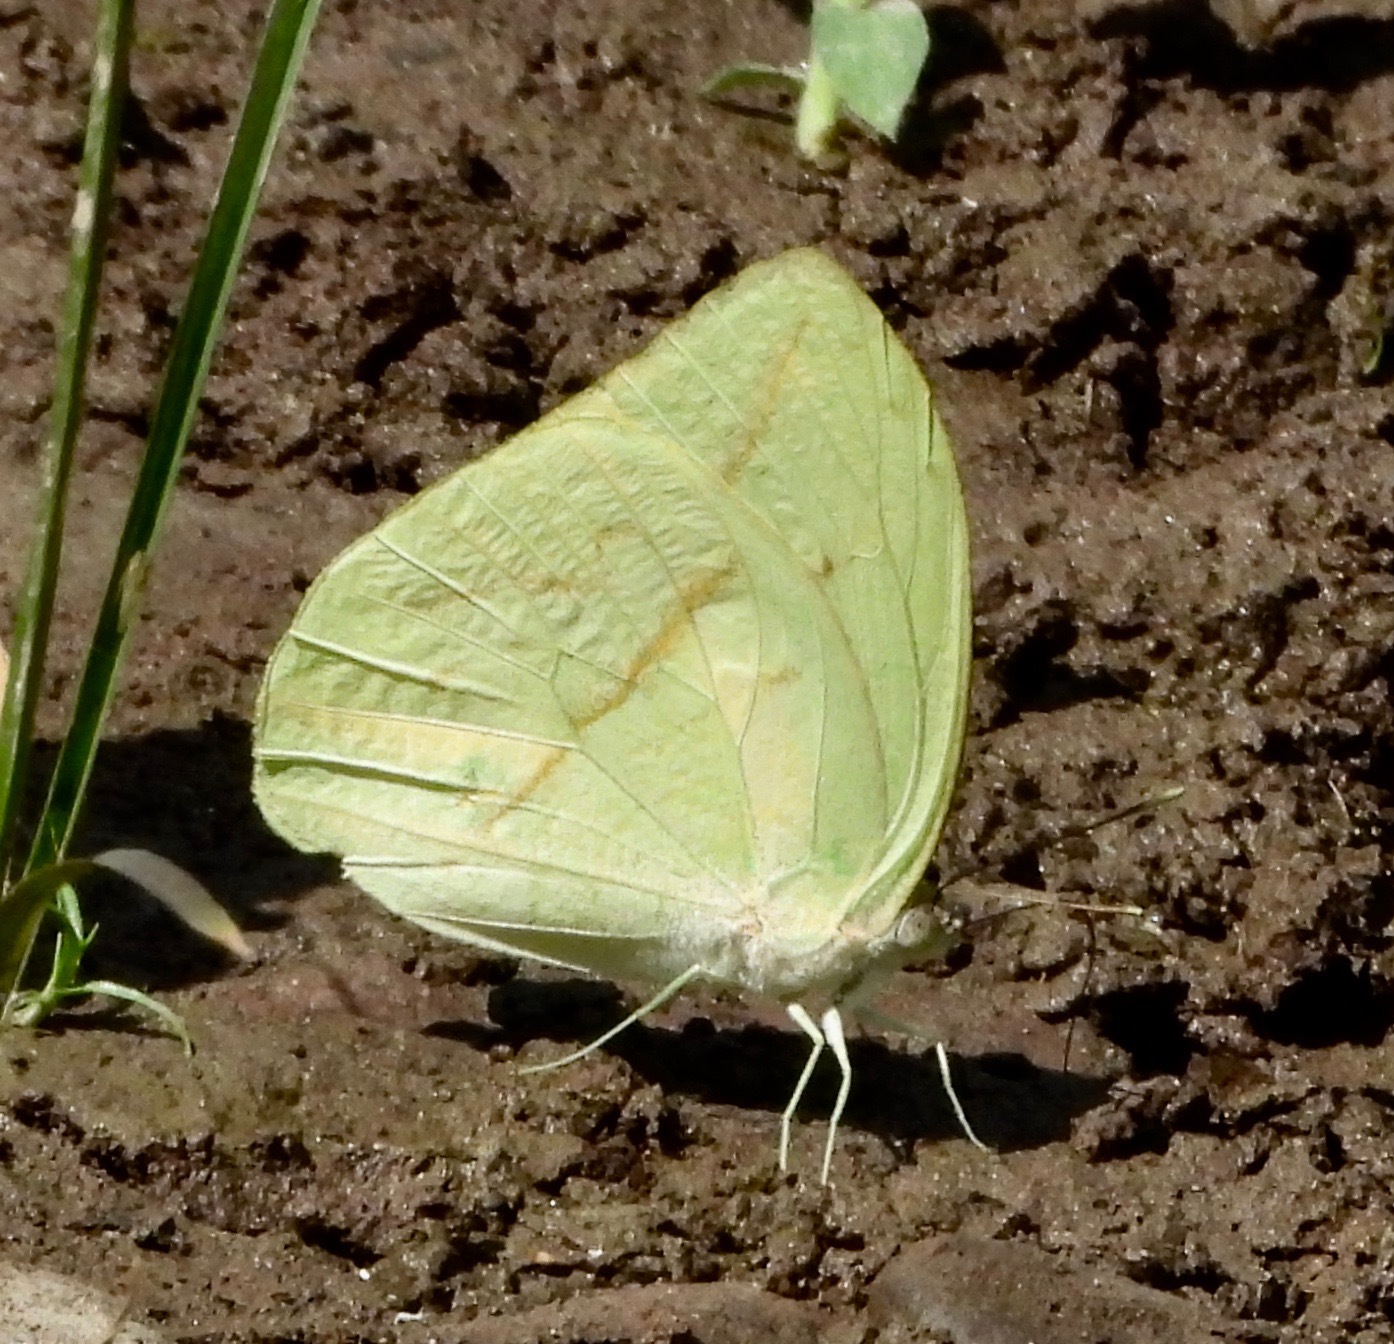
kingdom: Animalia
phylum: Arthropoda
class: Insecta
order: Lepidoptera
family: Pieridae
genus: Rhabdodryas
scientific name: Rhabdodryas trite
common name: Straight-lined sulphur
